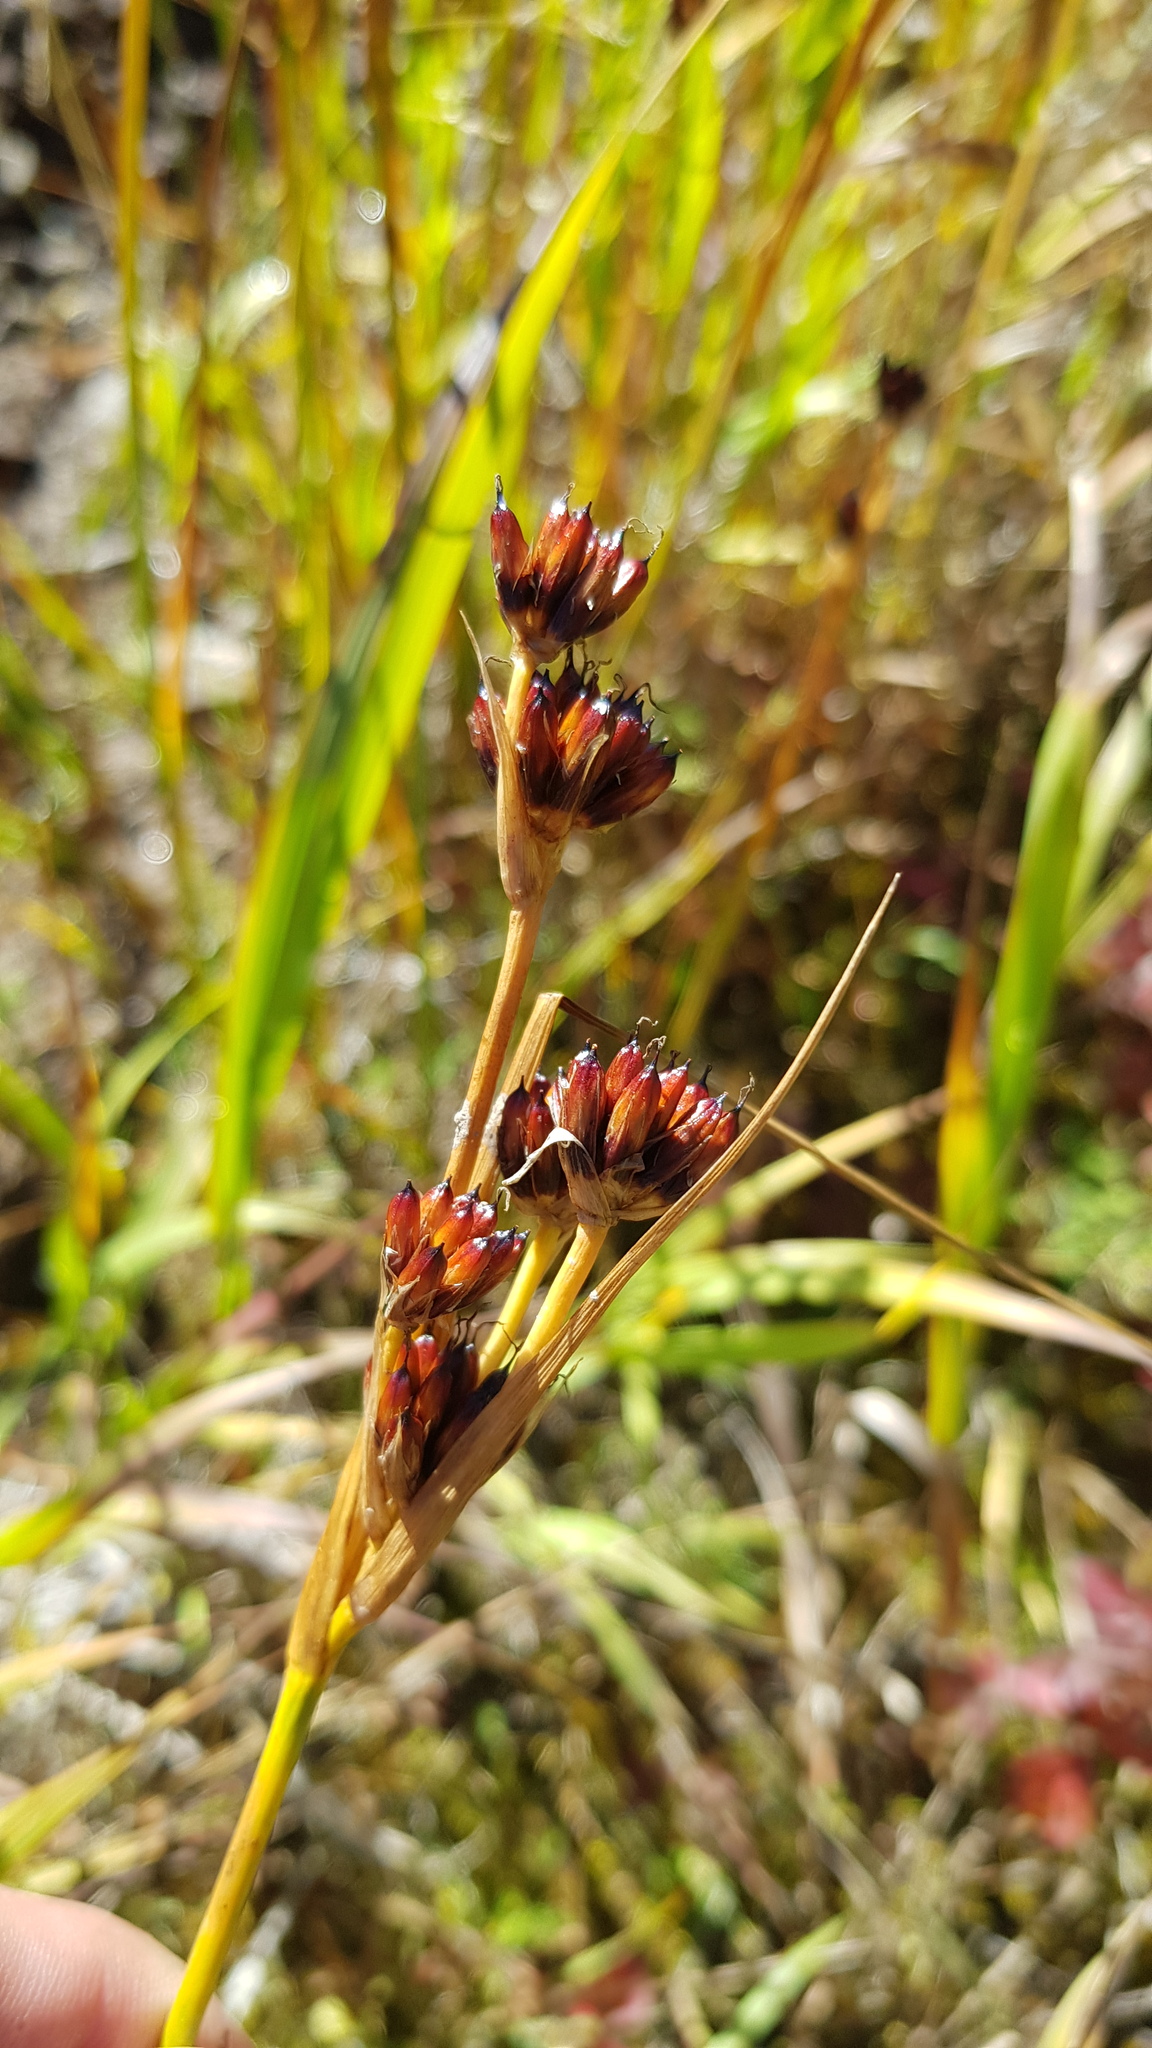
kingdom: Plantae
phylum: Tracheophyta
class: Liliopsida
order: Poales
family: Juncaceae
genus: Juncus
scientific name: Juncus castaneus
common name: Chestnut rush
